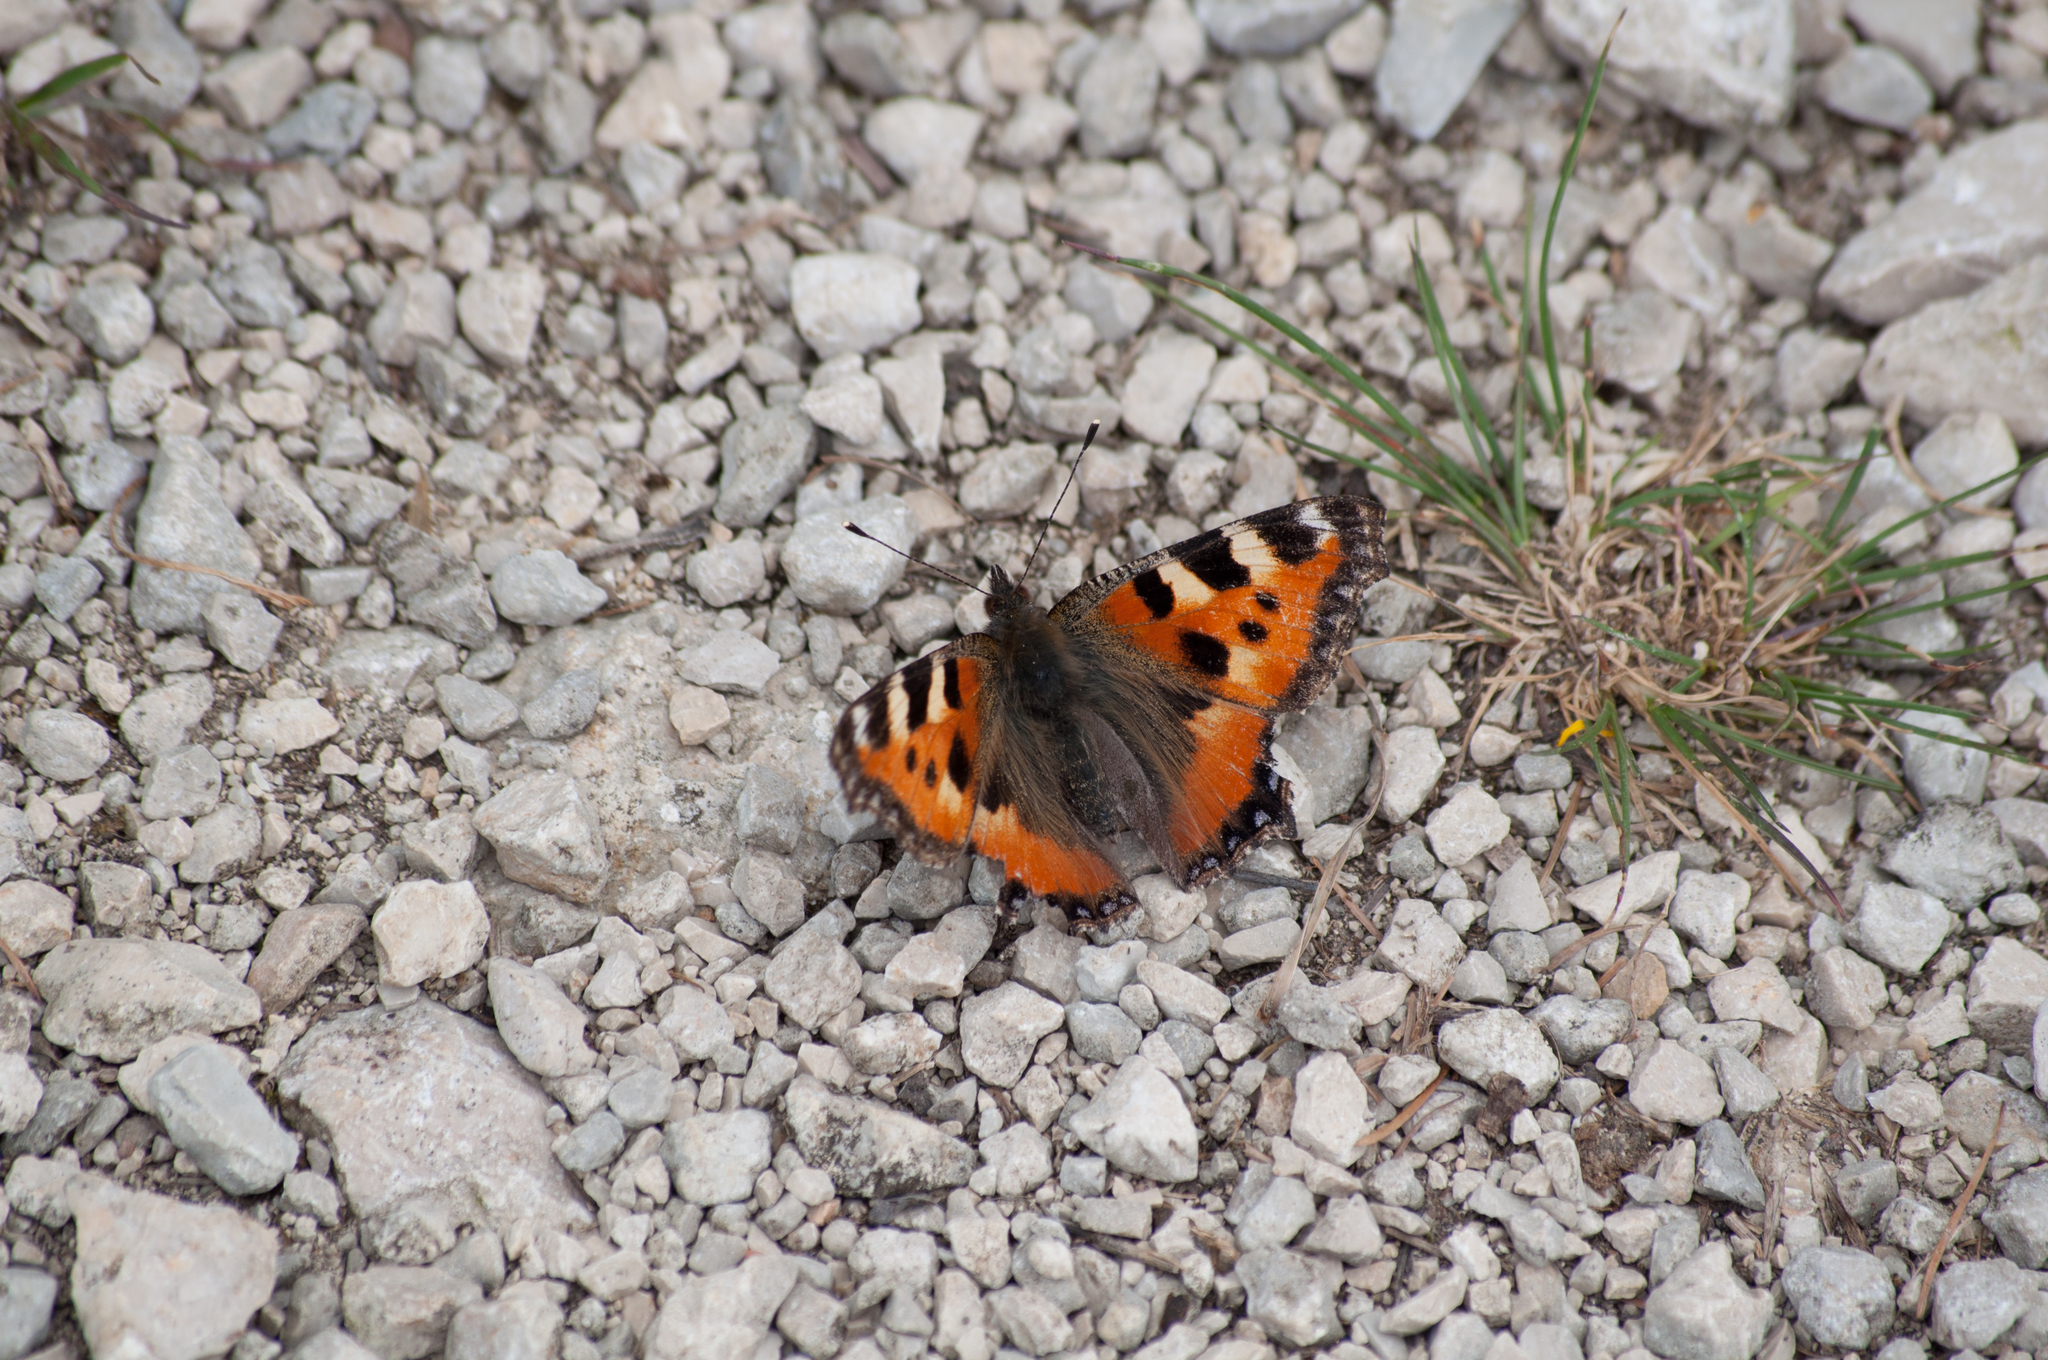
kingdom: Animalia
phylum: Arthropoda
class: Insecta
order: Lepidoptera
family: Nymphalidae
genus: Aglais
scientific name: Aglais urticae
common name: Small tortoiseshell
